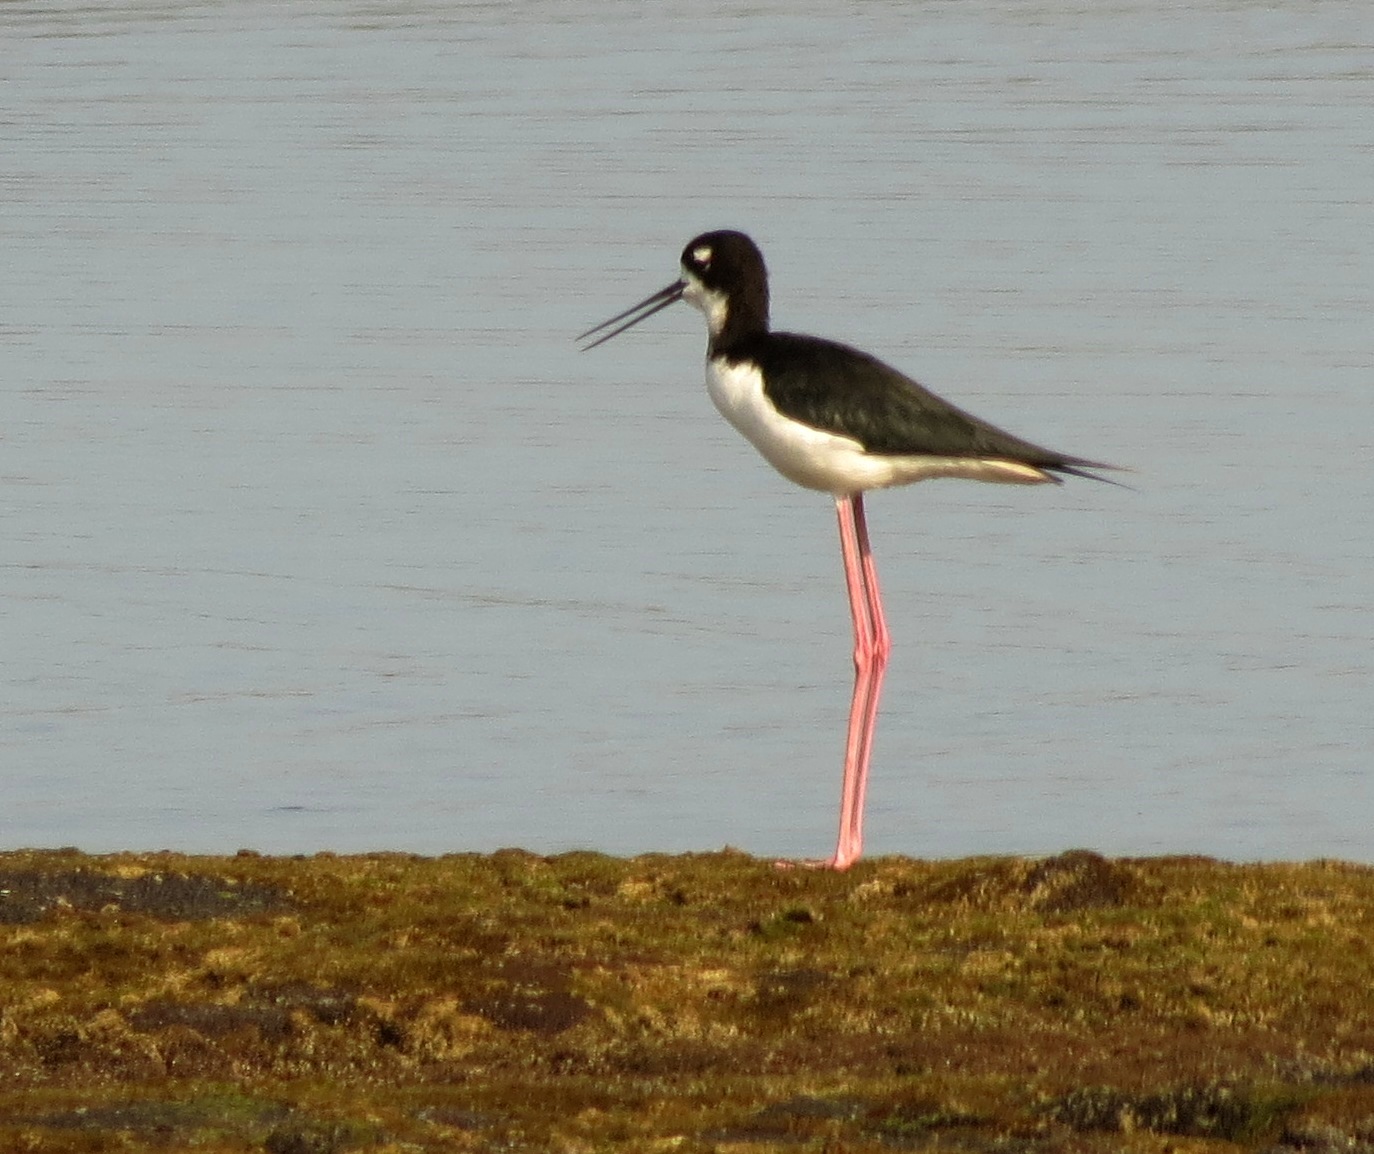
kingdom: Animalia
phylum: Chordata
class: Aves
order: Charadriiformes
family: Recurvirostridae
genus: Himantopus
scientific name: Himantopus mexicanus
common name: Black-necked stilt
